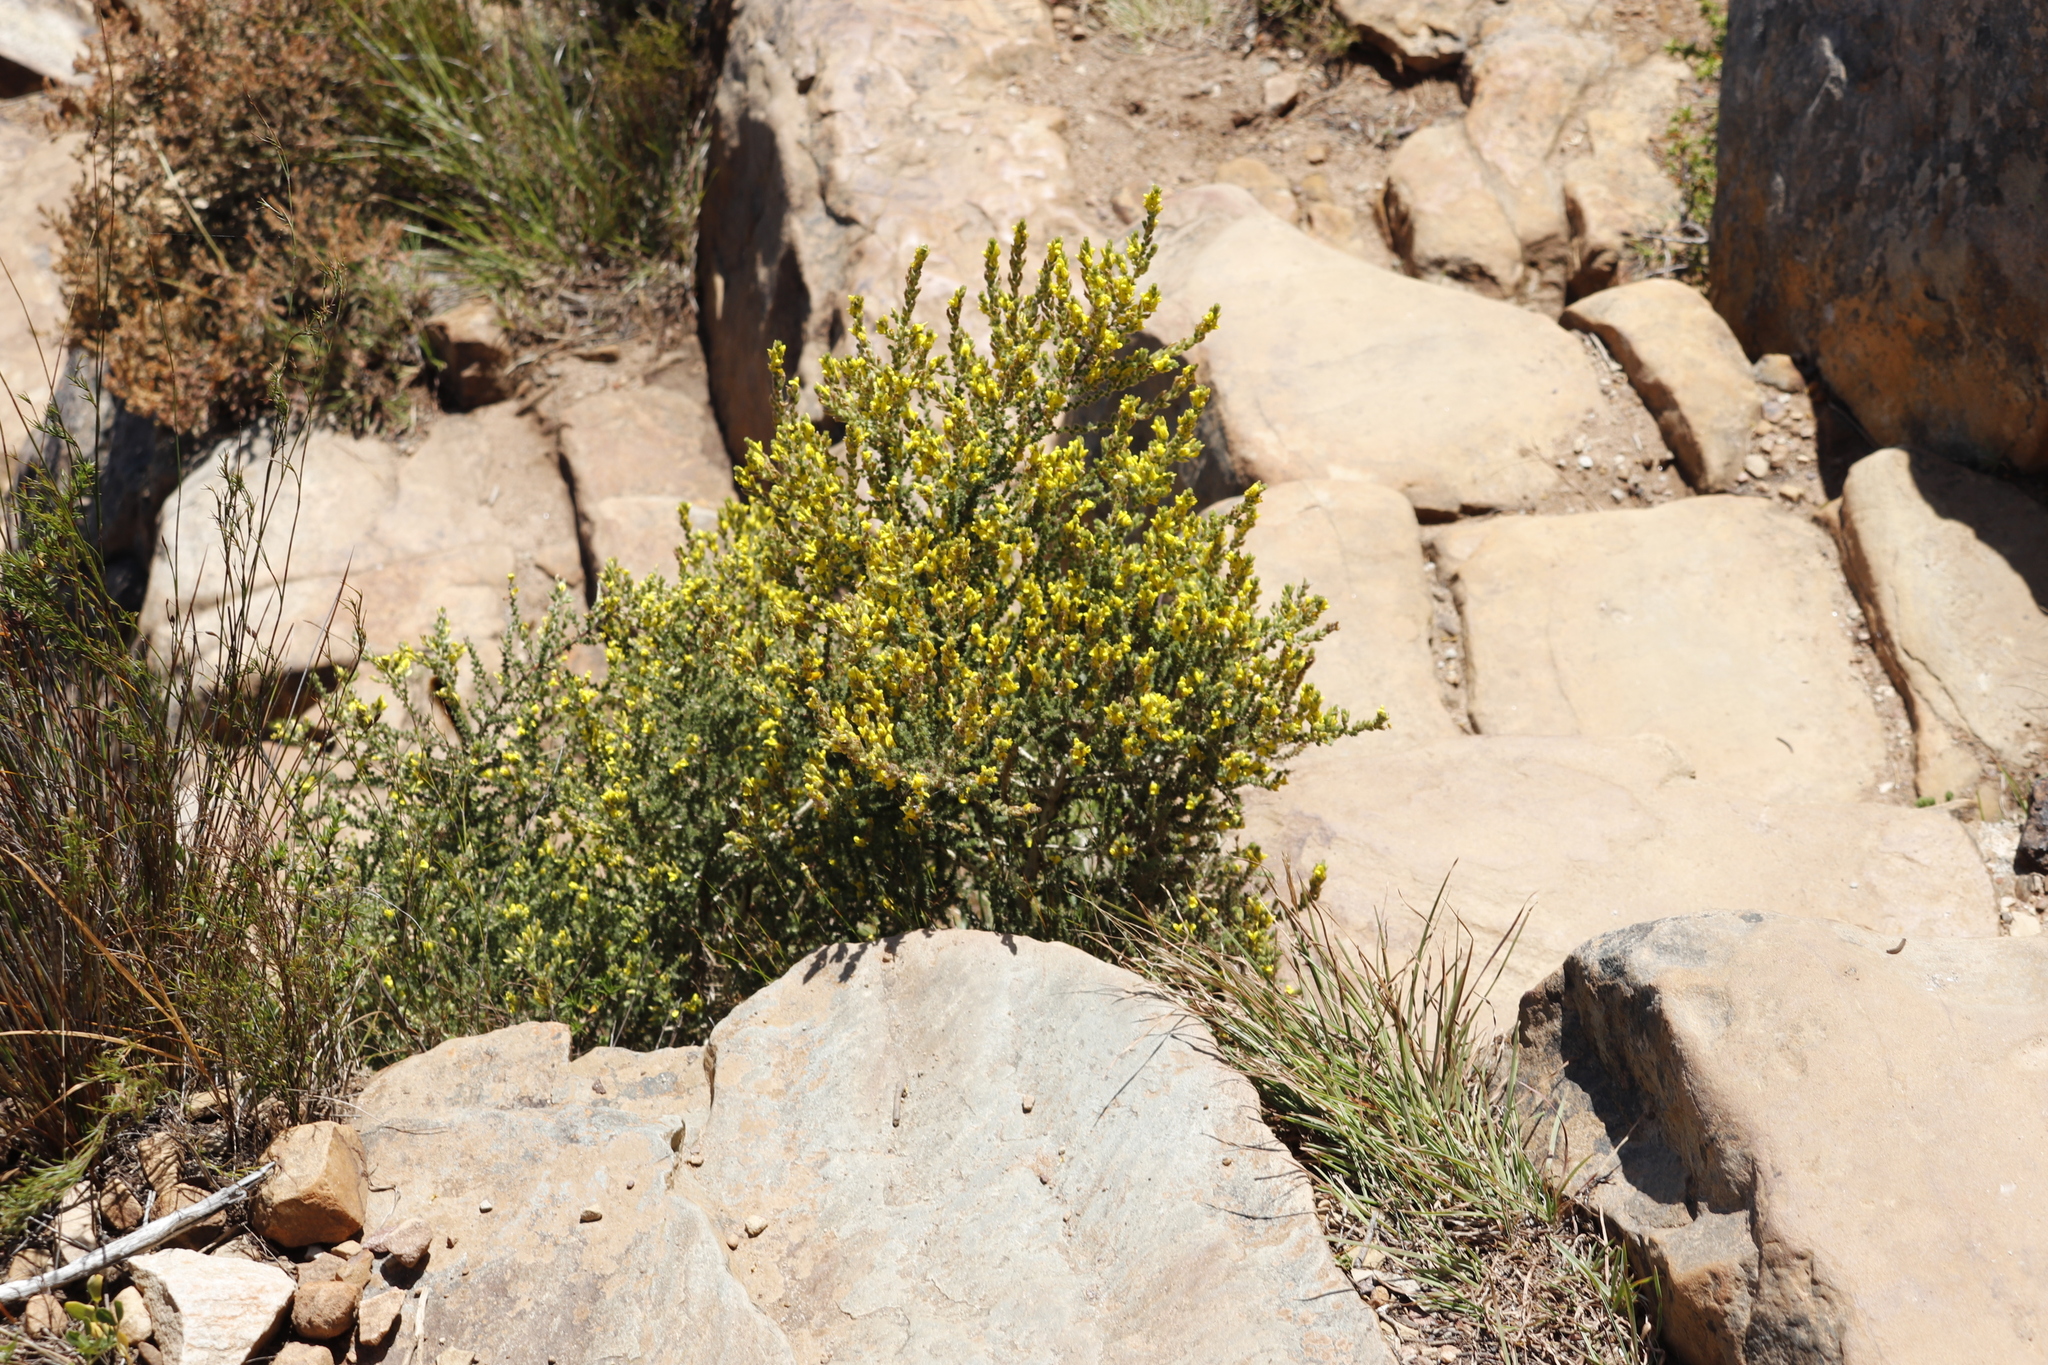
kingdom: Plantae
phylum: Tracheophyta
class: Magnoliopsida
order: Fabales
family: Fabaceae
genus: Aspalathus
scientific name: Aspalathus ericifolia
